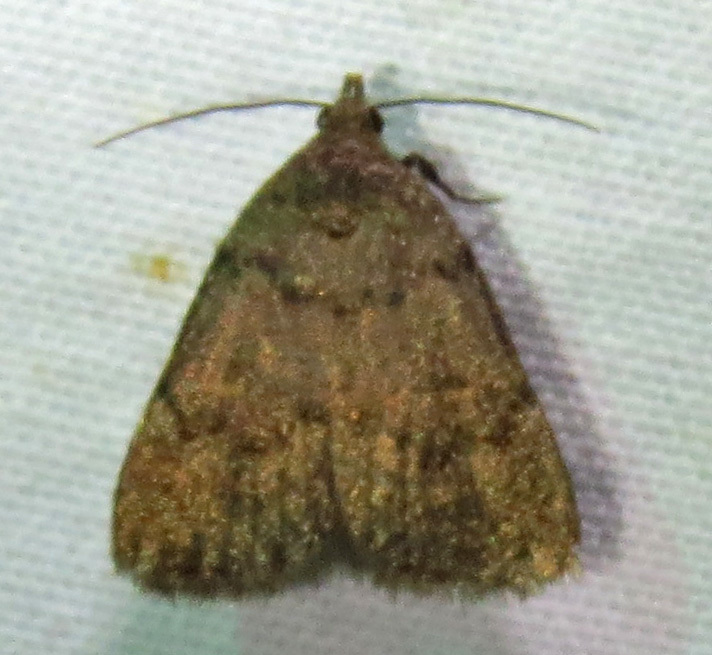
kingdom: Animalia
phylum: Arthropoda
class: Insecta
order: Lepidoptera
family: Erebidae
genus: Idia
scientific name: Idia aemula
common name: Common idia moth
